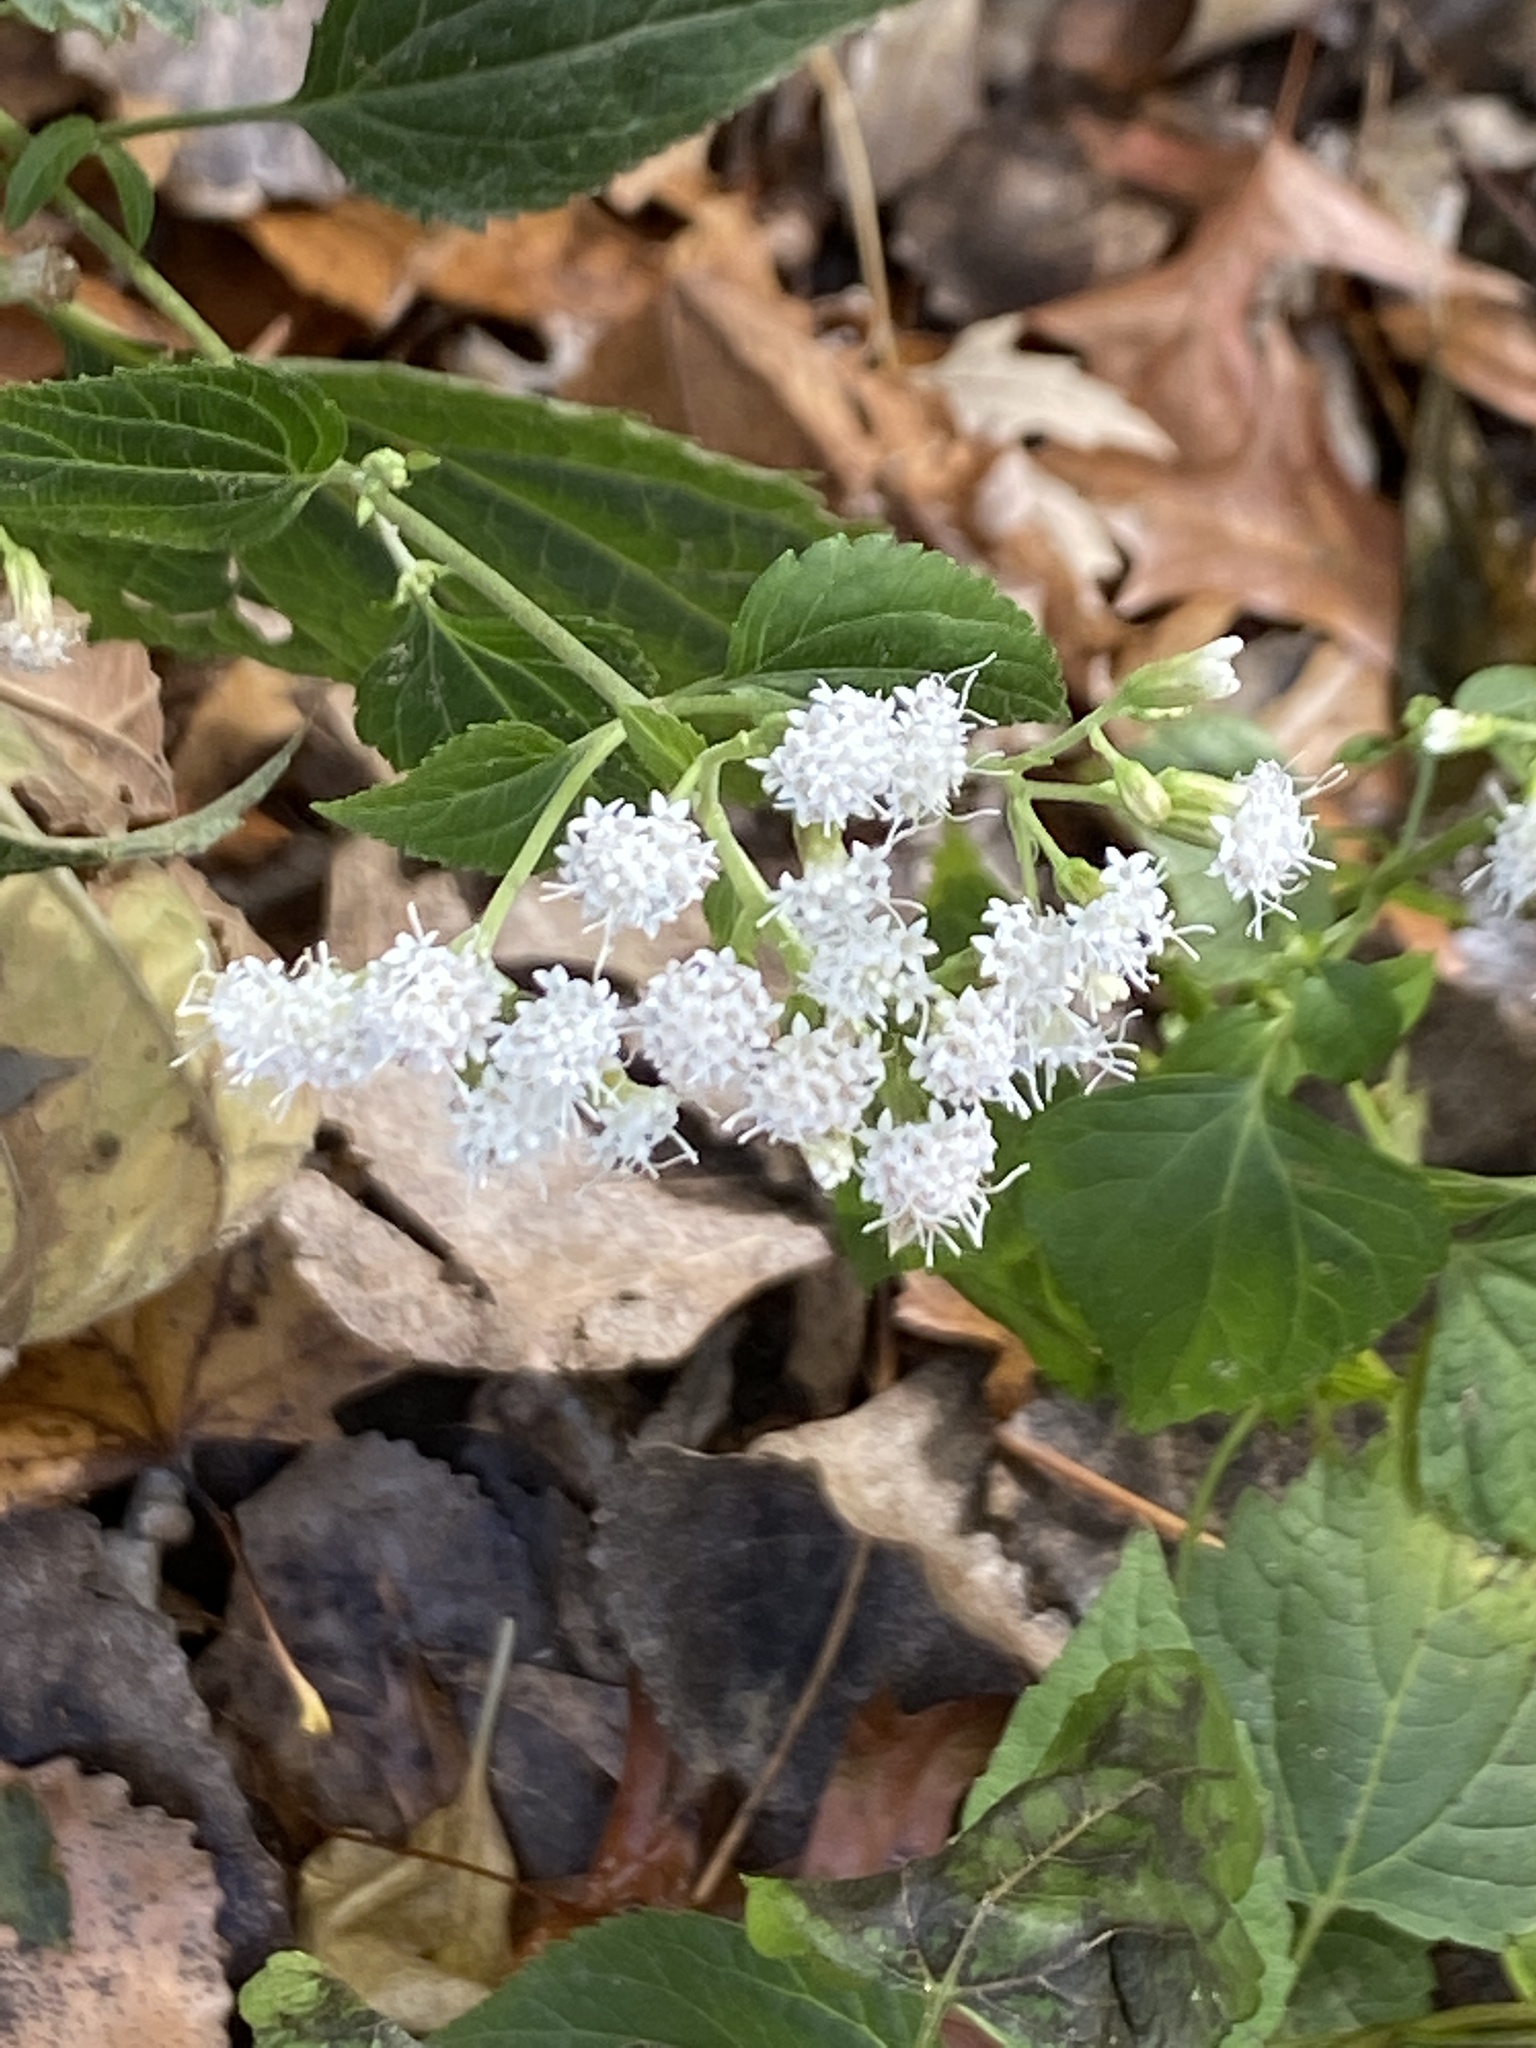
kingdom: Plantae
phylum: Tracheophyta
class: Magnoliopsida
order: Asterales
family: Asteraceae
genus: Ageratina
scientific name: Ageratina altissima
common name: White snakeroot
